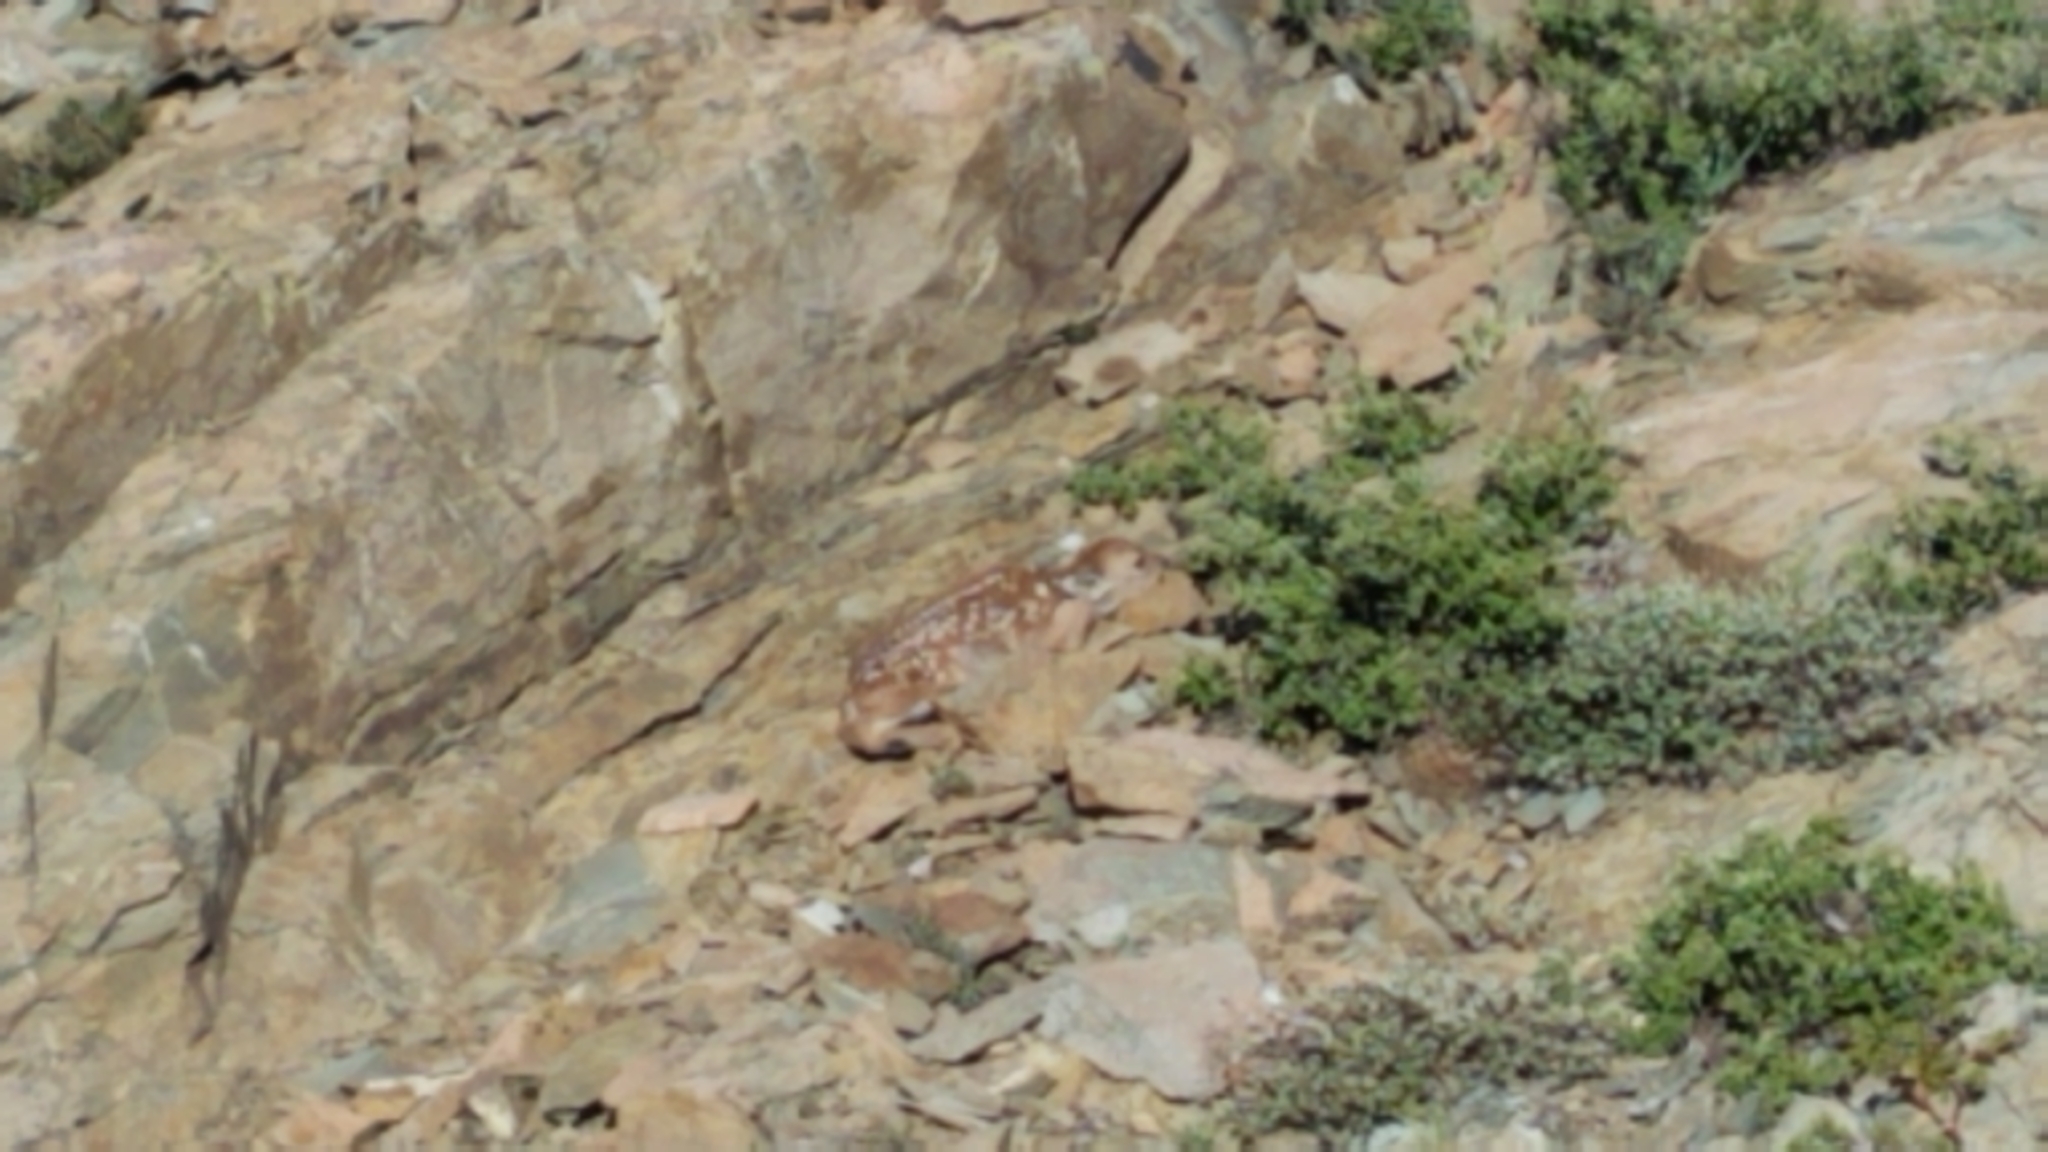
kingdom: Animalia
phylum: Chordata
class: Mammalia
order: Artiodactyla
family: Cervidae
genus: Odocoileus
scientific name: Odocoileus hemionus
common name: Mule deer
